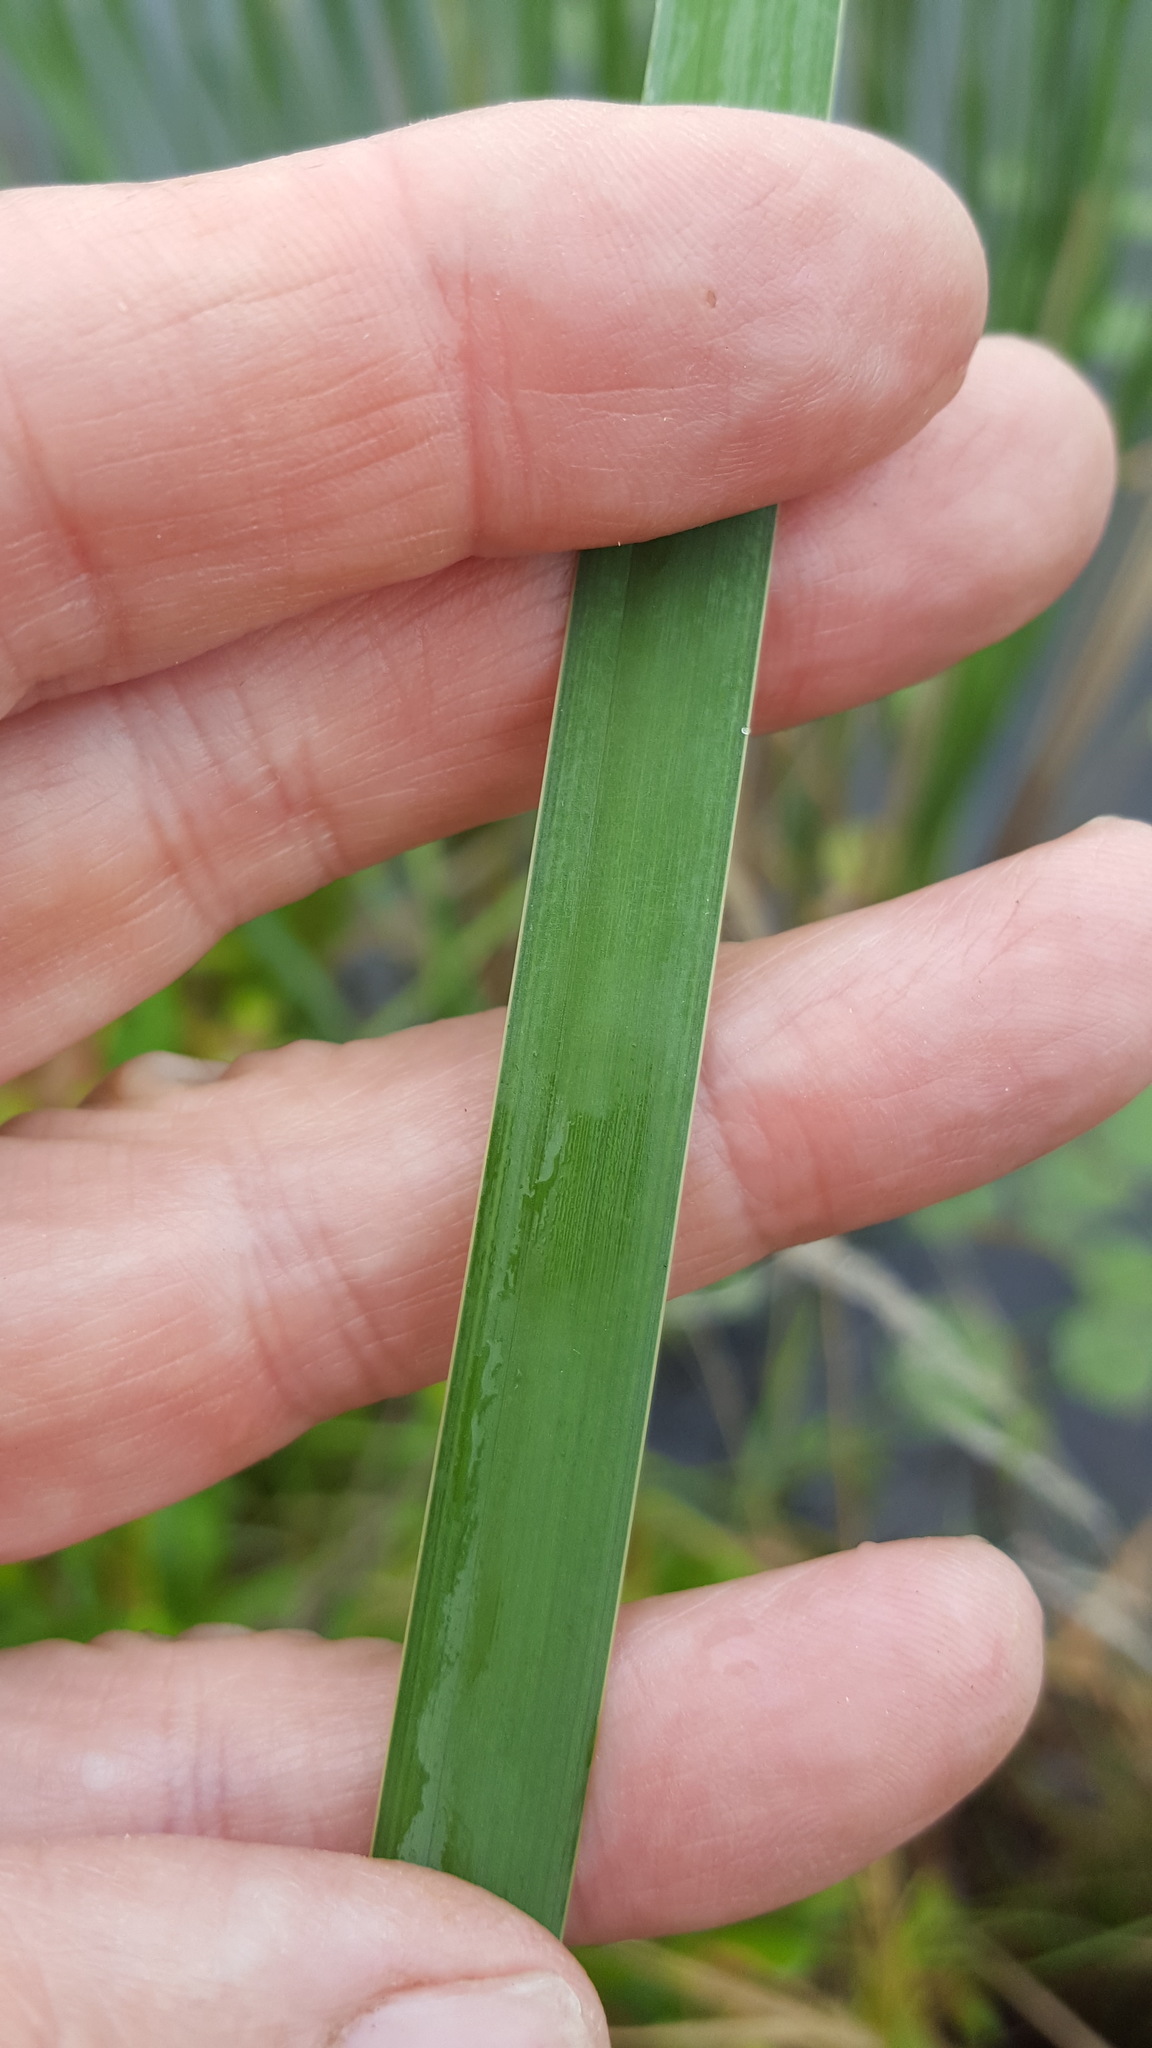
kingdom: Plantae
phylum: Tracheophyta
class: Liliopsida
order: Poales
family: Typhaceae
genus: Typha
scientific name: Typha angustifolia
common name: Lesser bulrush
